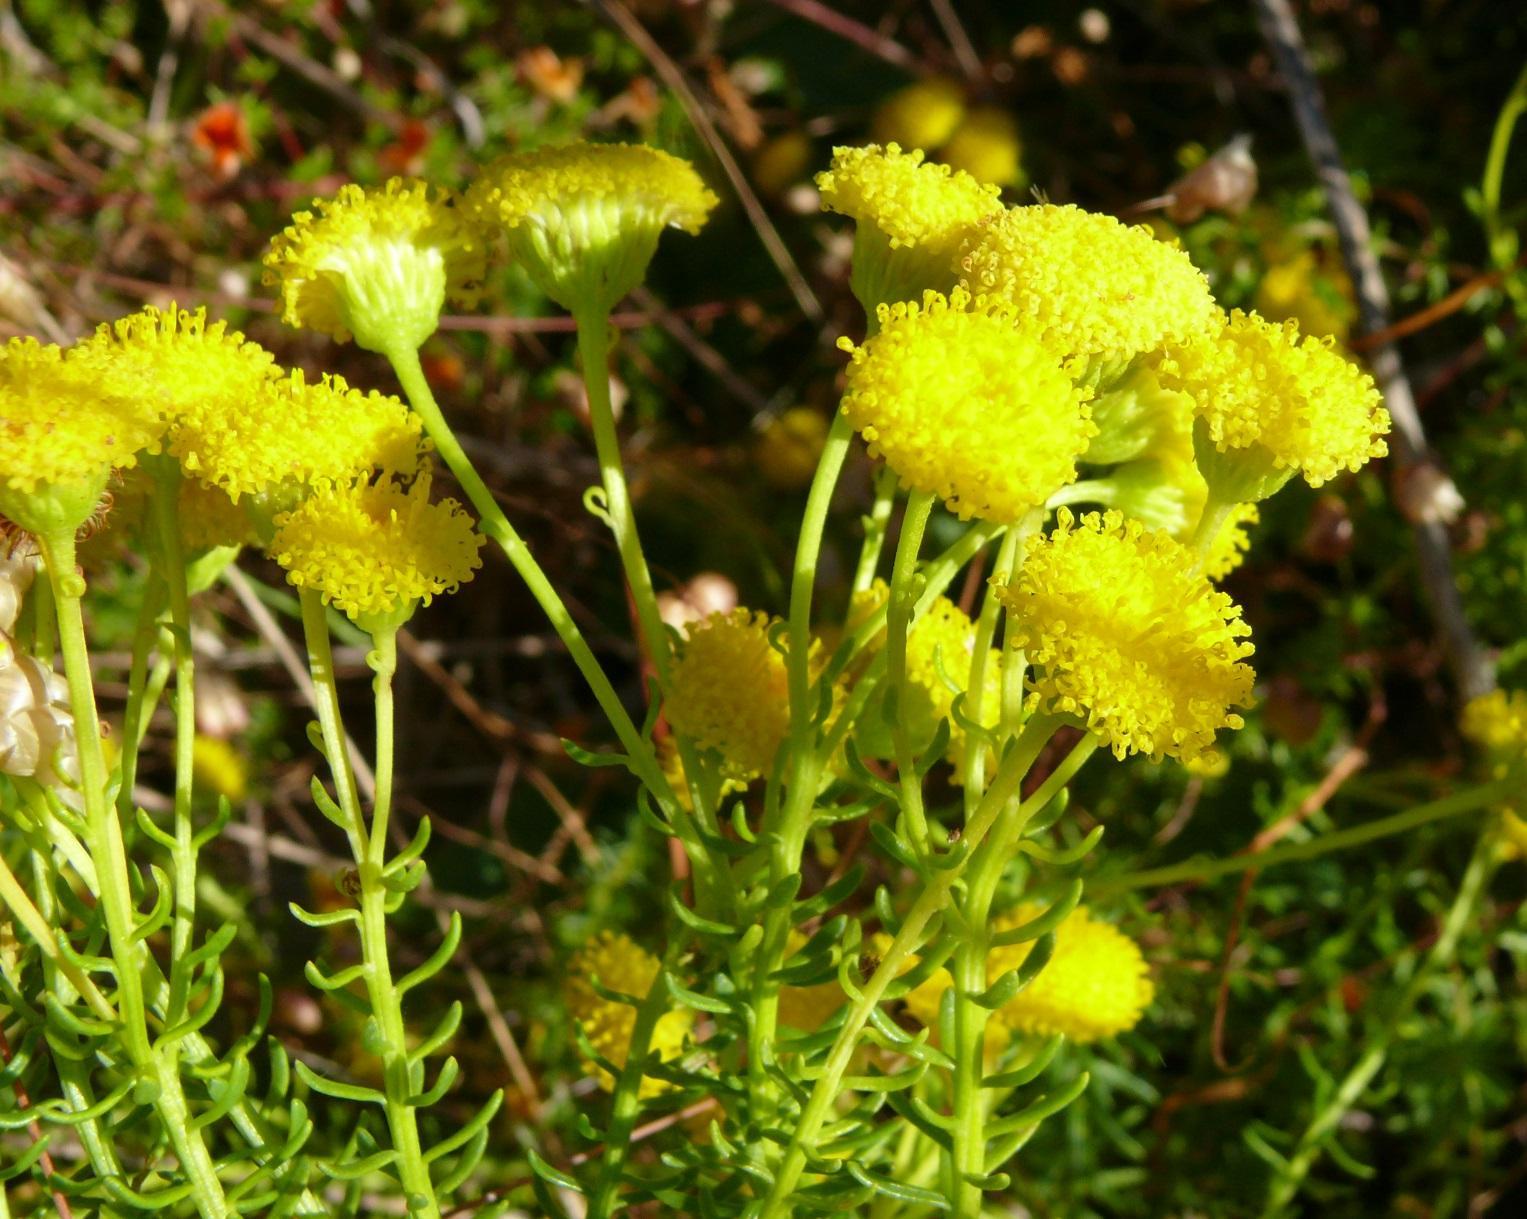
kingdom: Plantae
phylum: Tracheophyta
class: Magnoliopsida
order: Asterales
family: Asteraceae
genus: Chrysocoma
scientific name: Chrysocoma cernua
